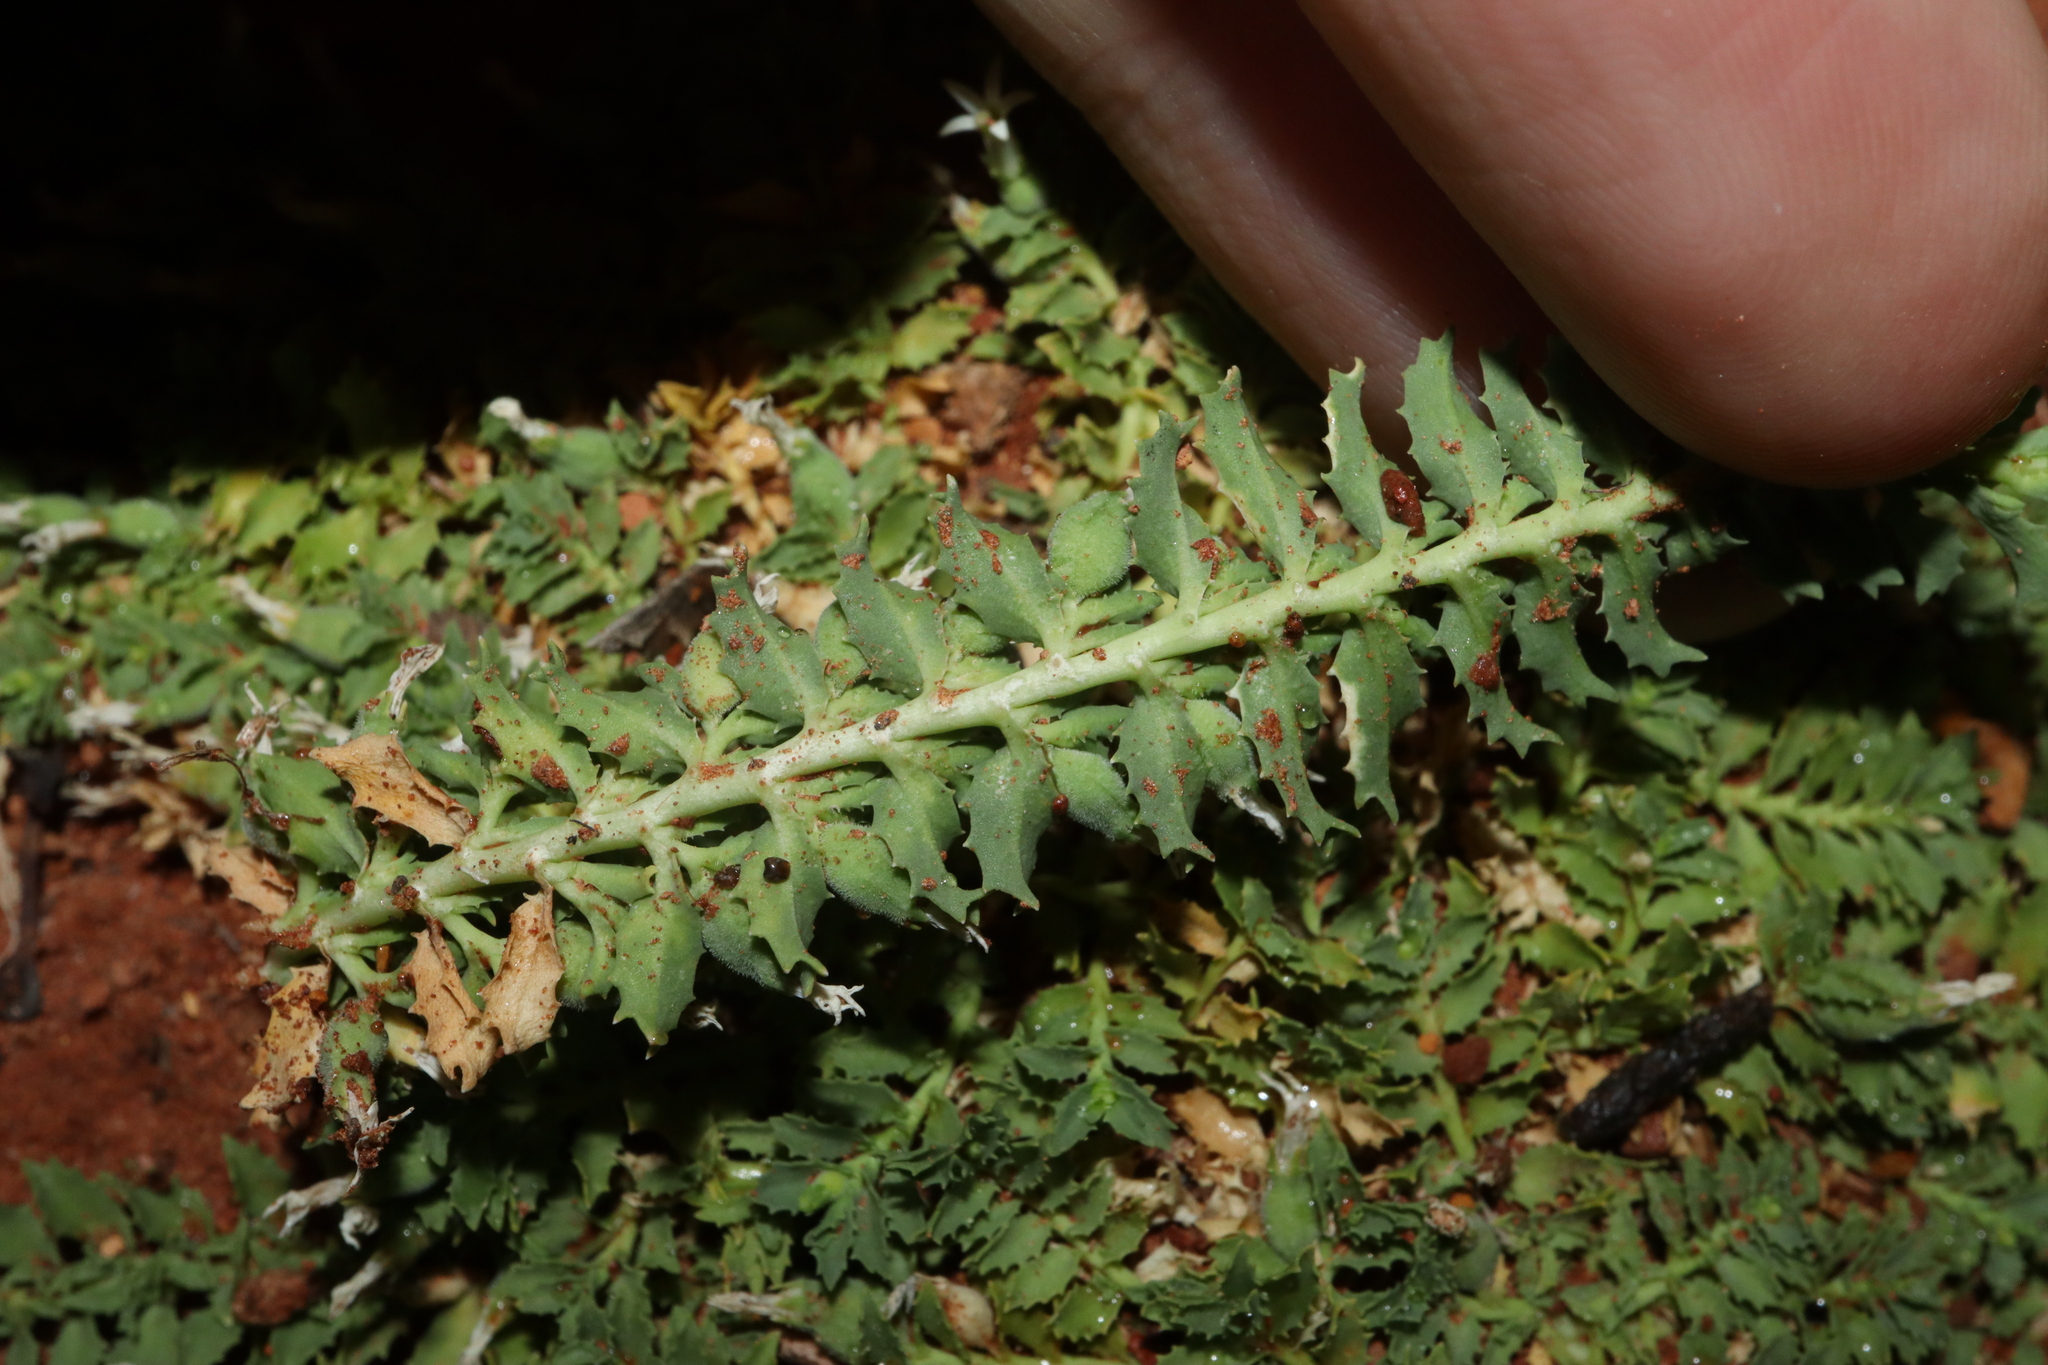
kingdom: Plantae
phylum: Tracheophyta
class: Magnoliopsida
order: Asterales
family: Campanulaceae
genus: Lobelia
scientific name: Lobelia darlingensis
